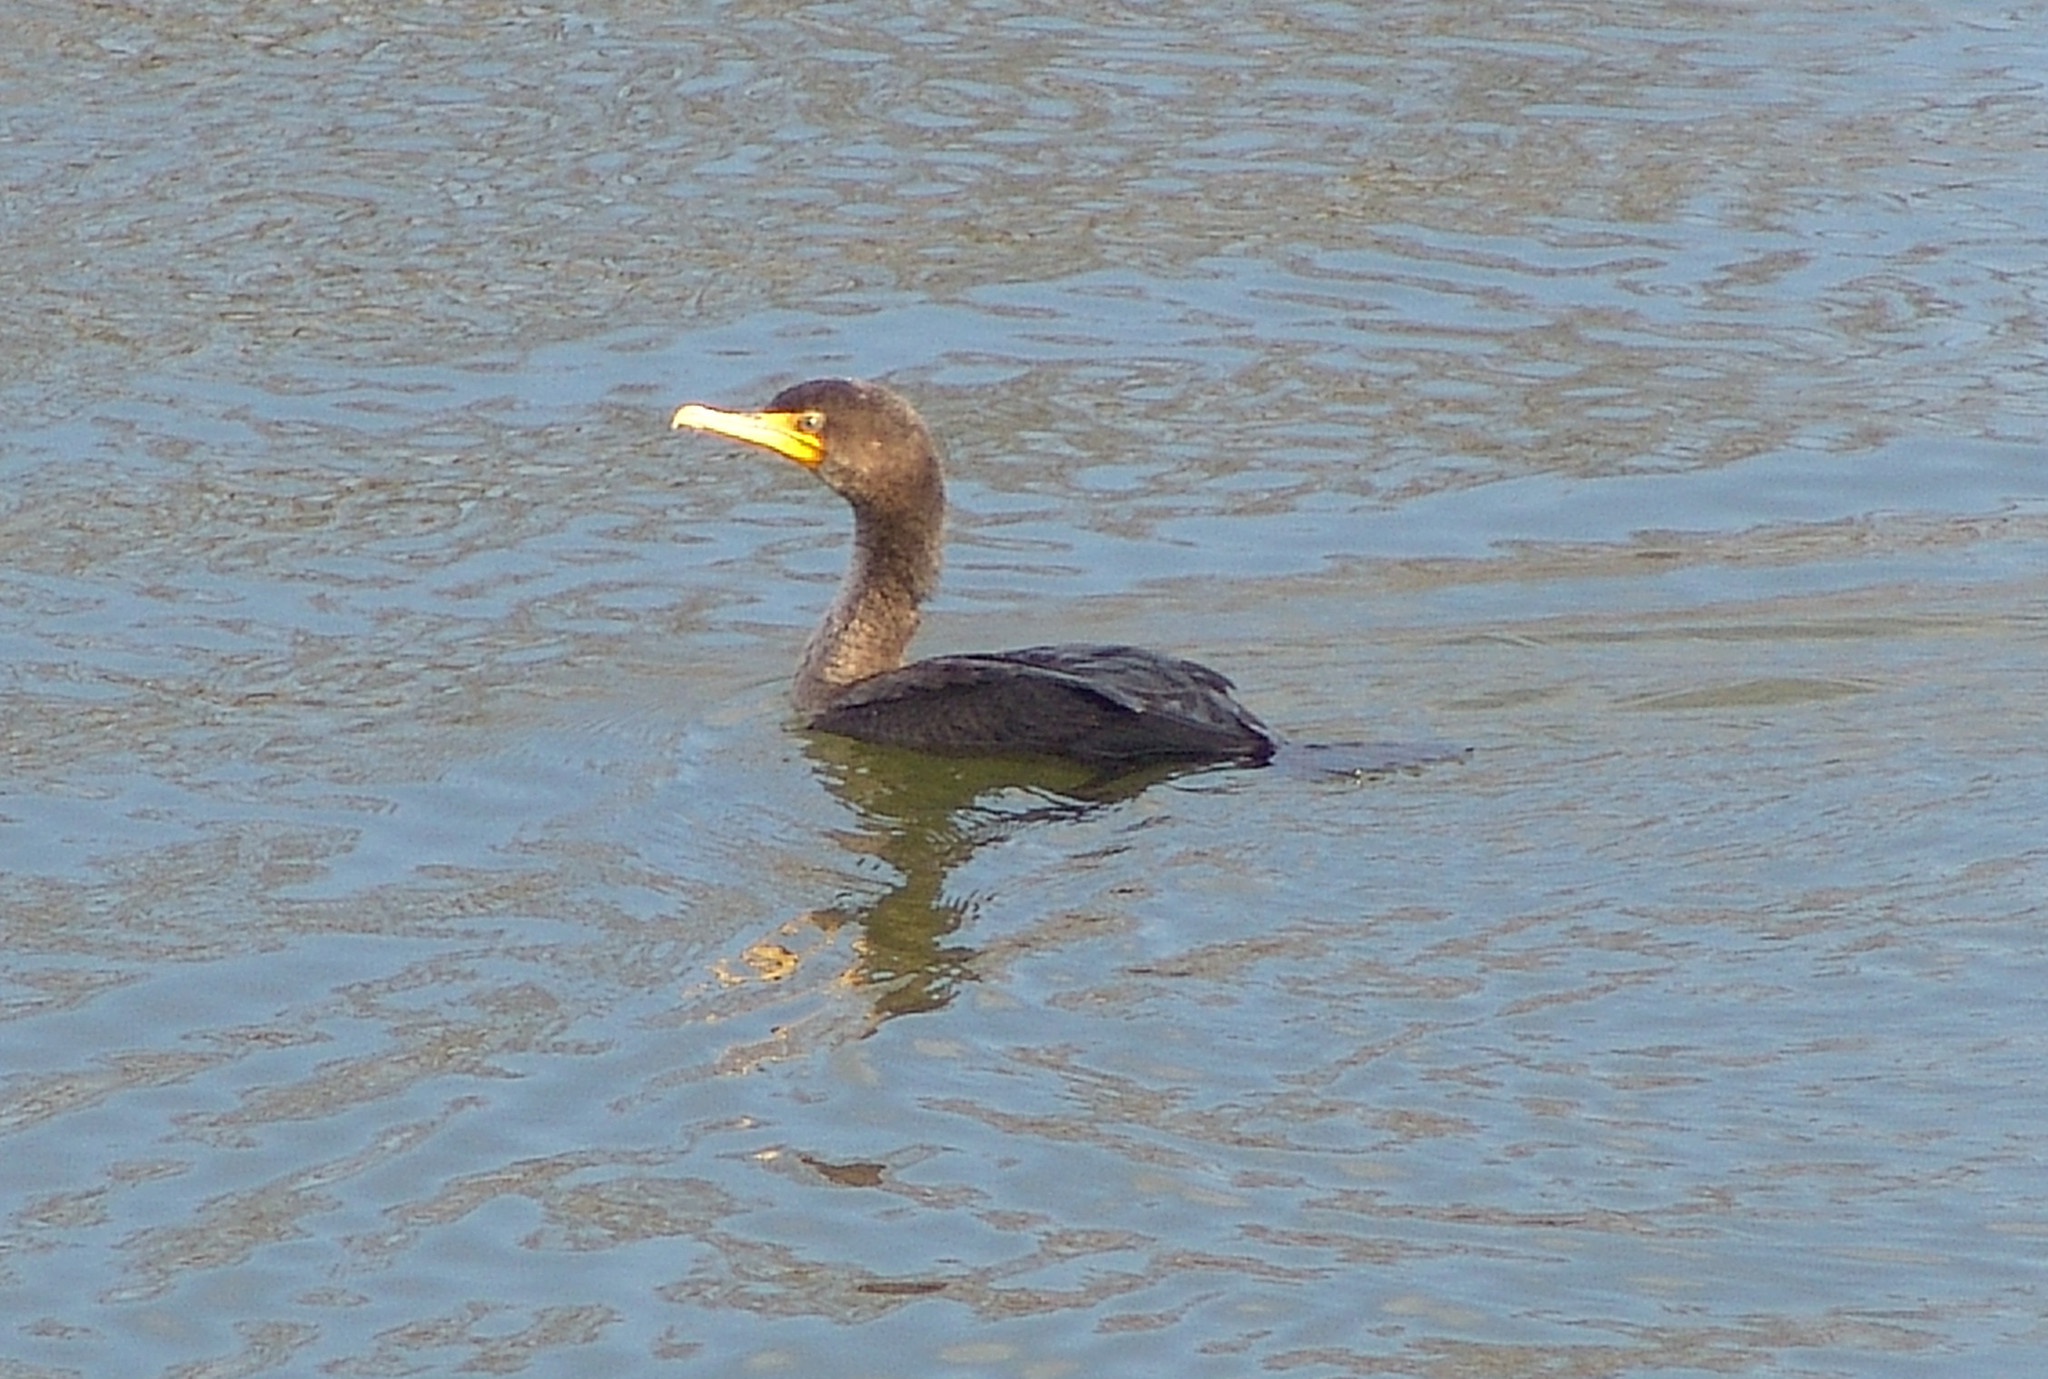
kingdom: Animalia
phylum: Chordata
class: Aves
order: Suliformes
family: Phalacrocoracidae
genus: Phalacrocorax
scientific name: Phalacrocorax auritus
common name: Double-crested cormorant
